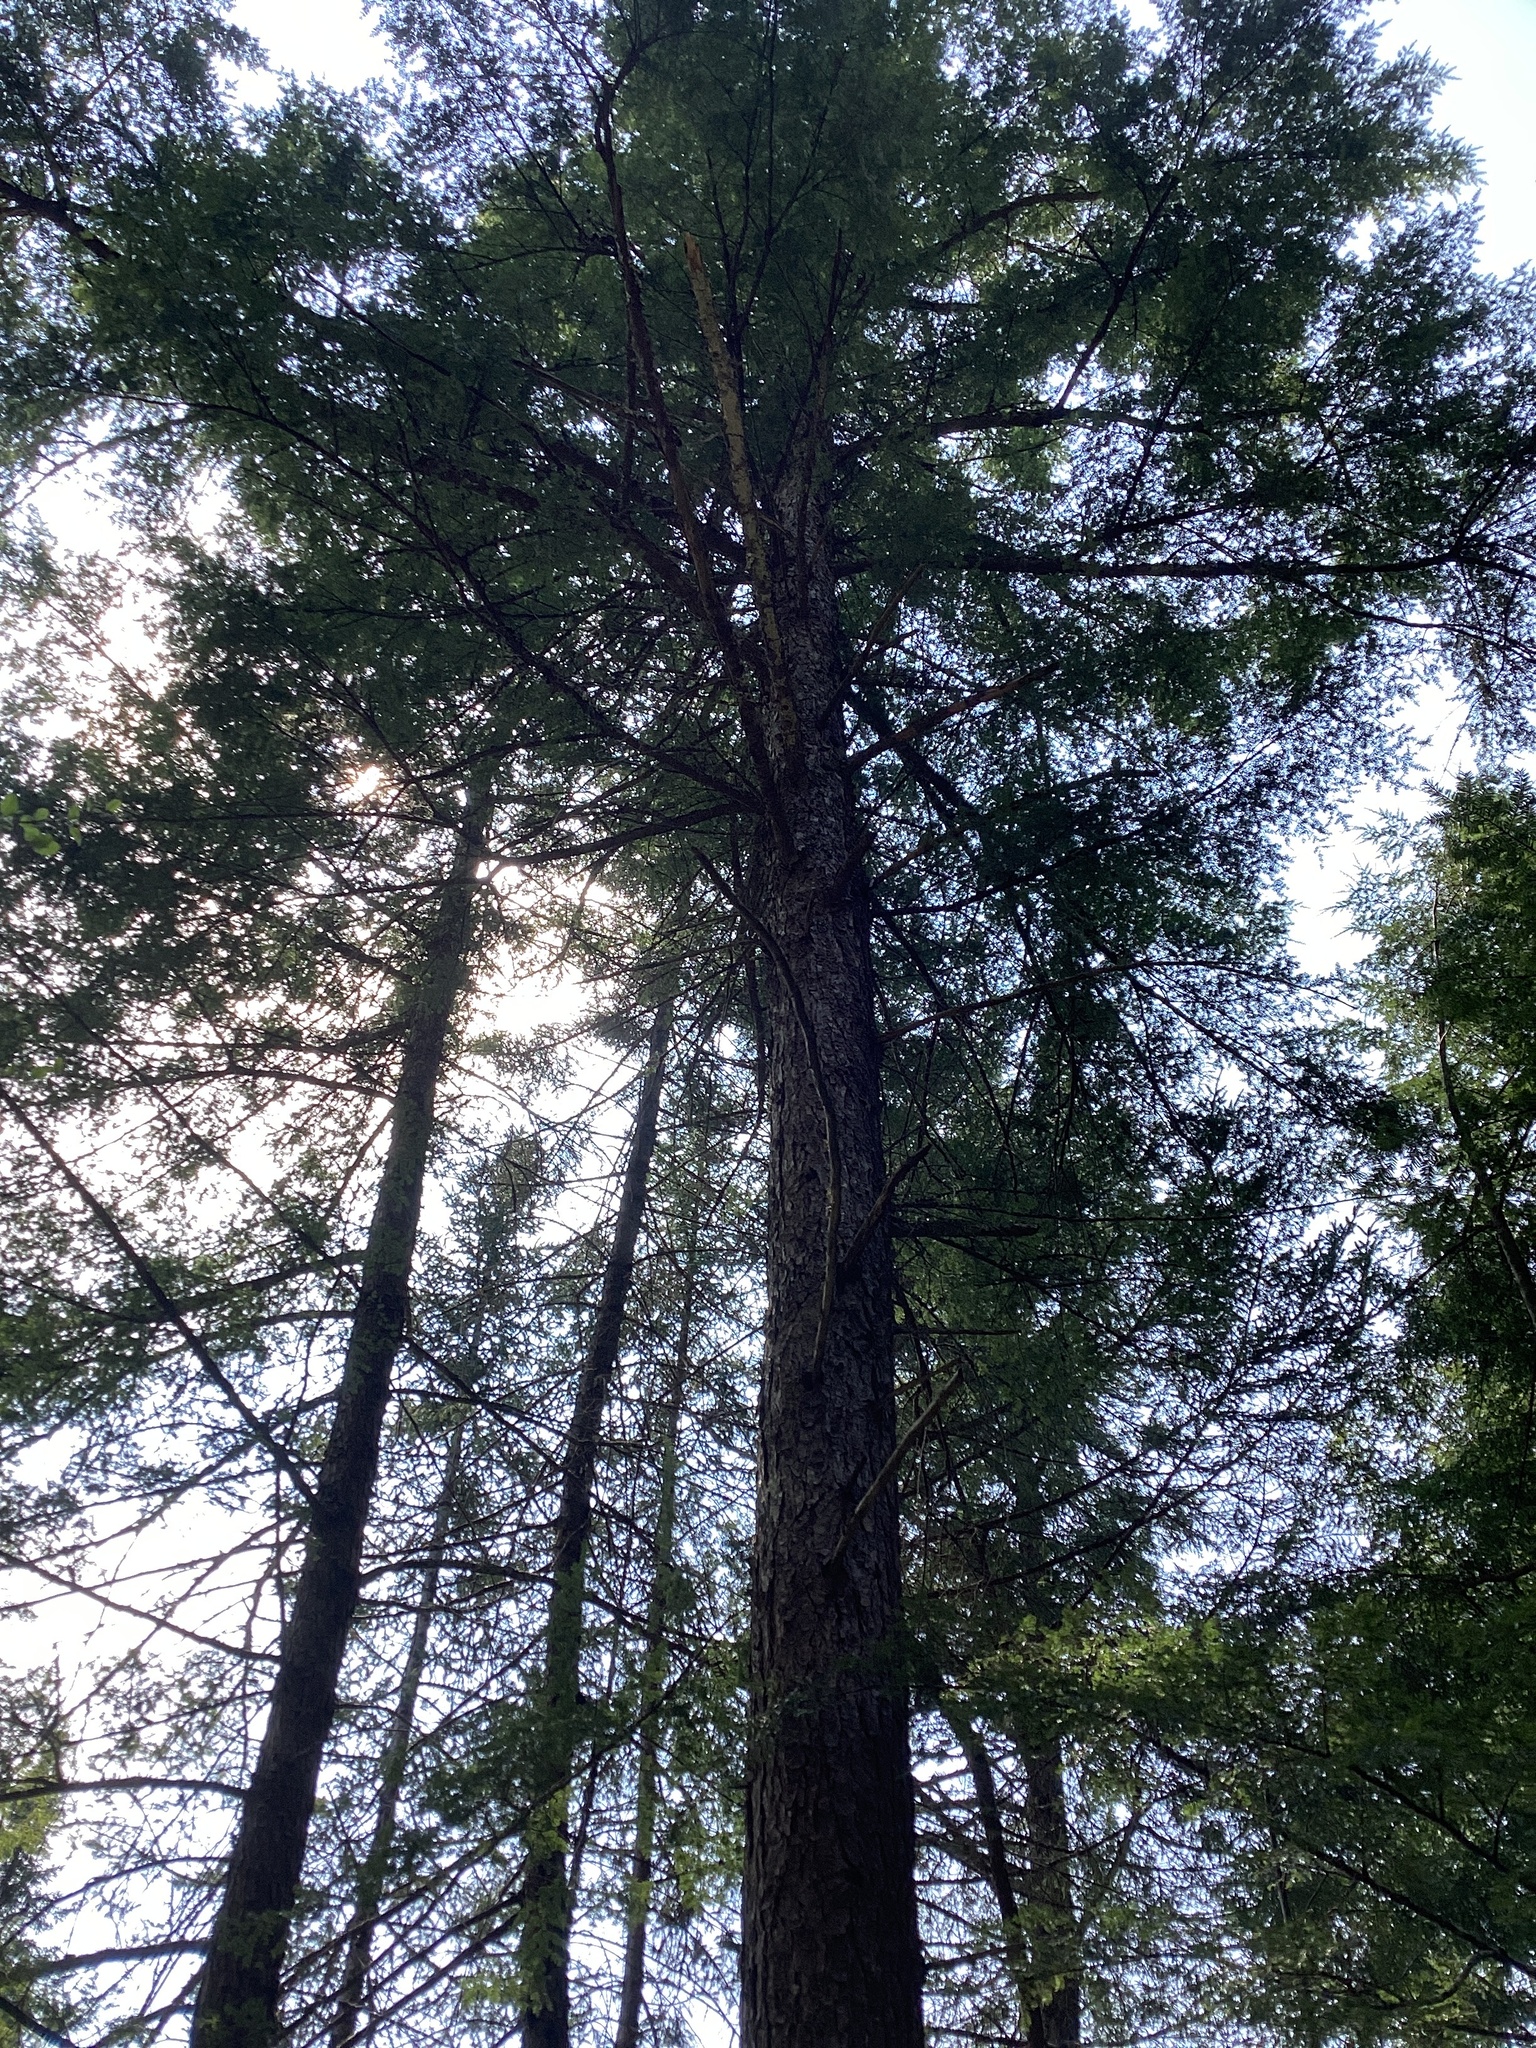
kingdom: Plantae
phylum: Tracheophyta
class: Pinopsida
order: Pinales
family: Pinaceae
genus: Tsuga
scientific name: Tsuga canadensis
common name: Eastern hemlock
